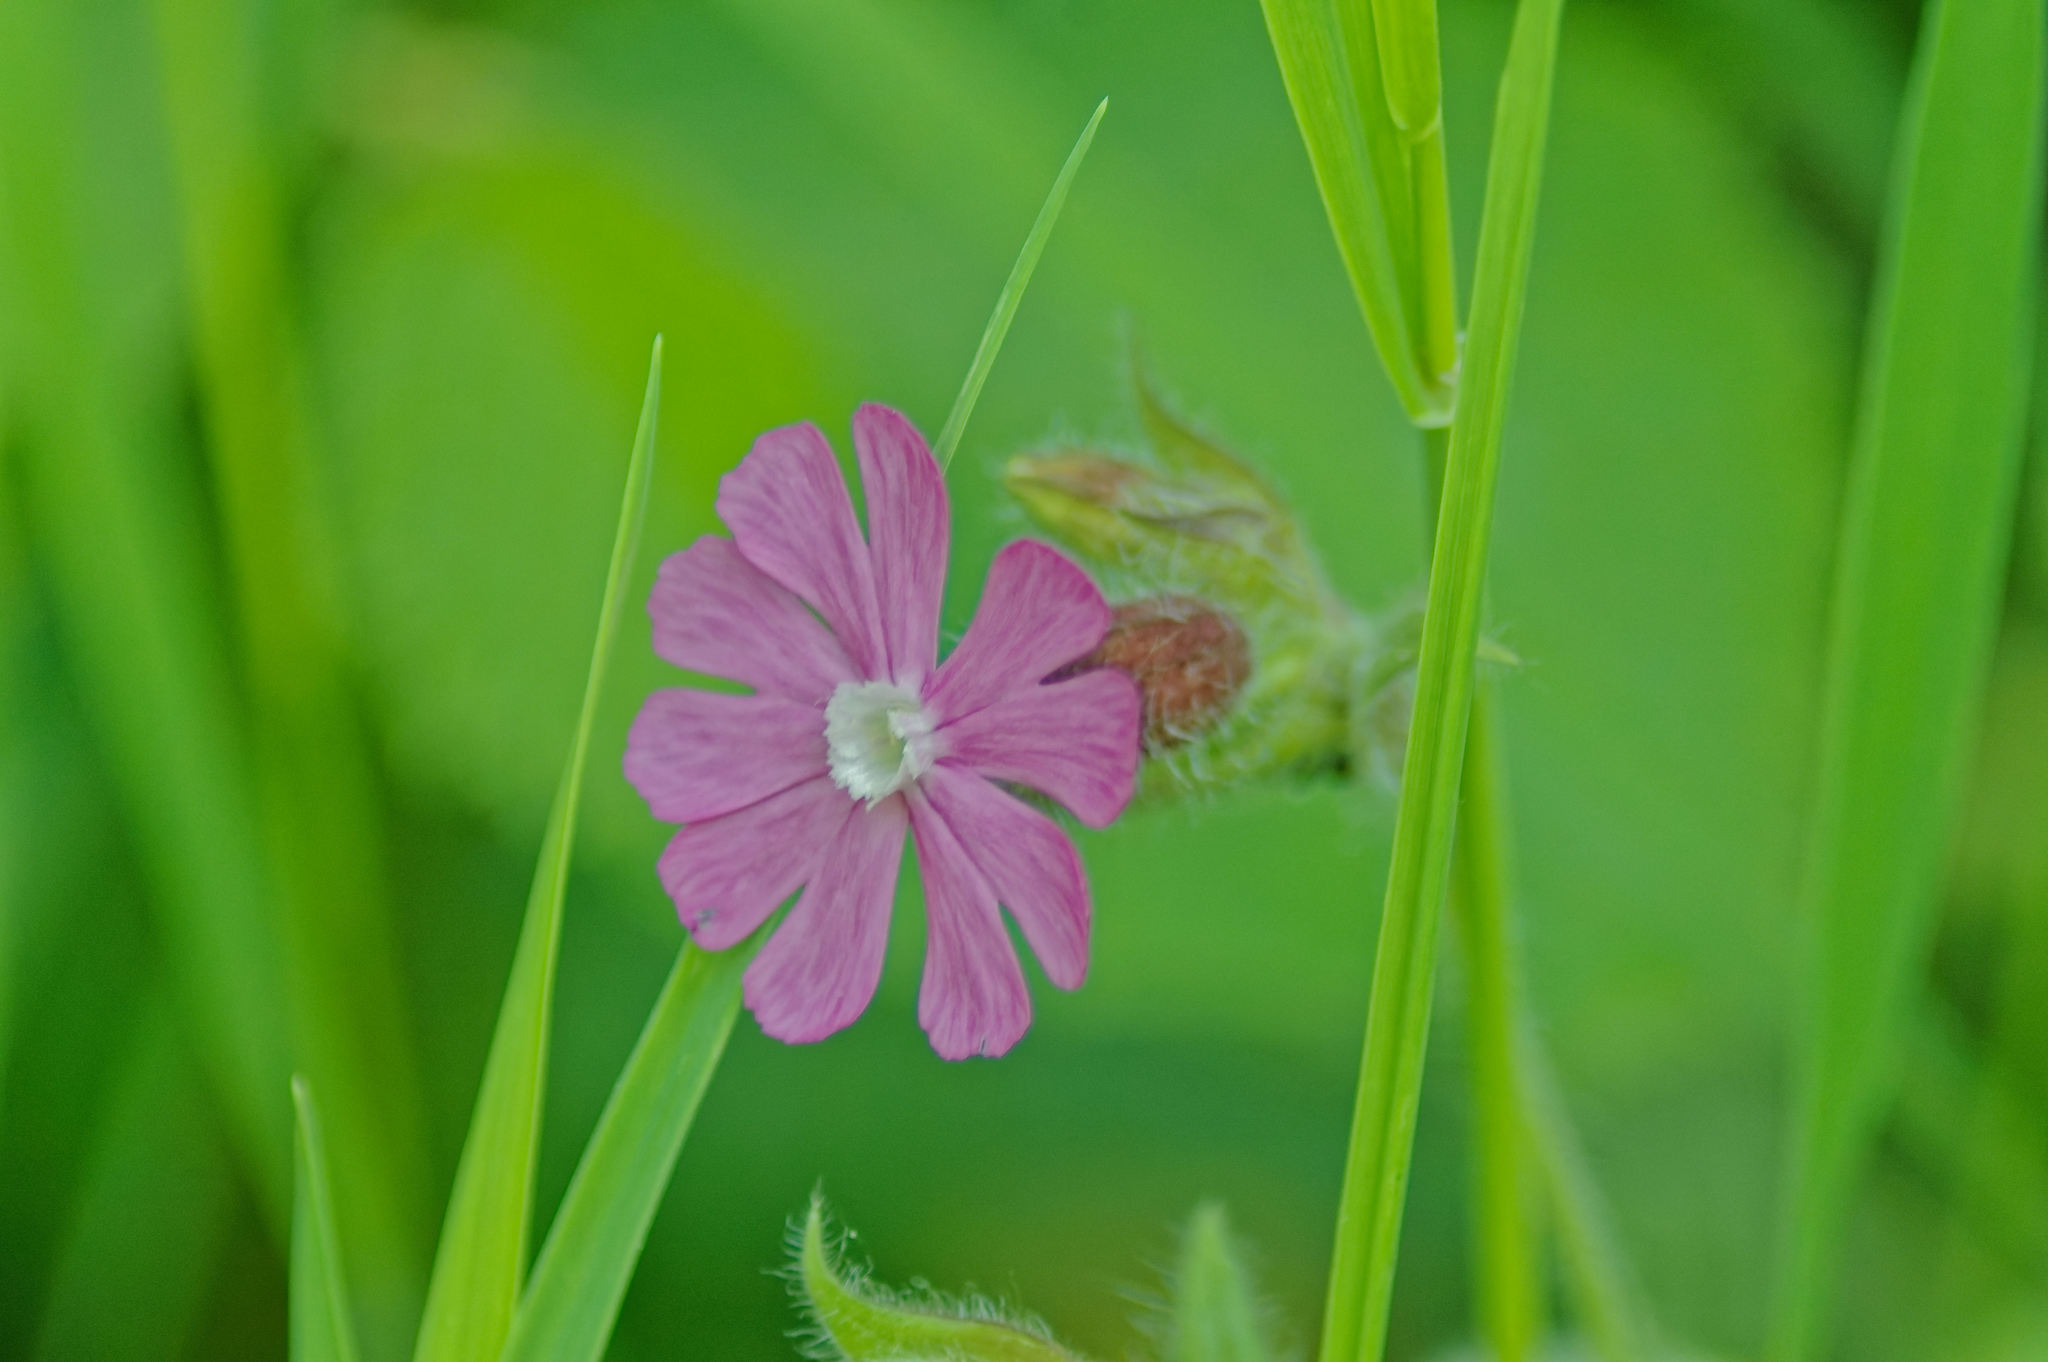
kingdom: Plantae
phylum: Tracheophyta
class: Magnoliopsida
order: Caryophyllales
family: Caryophyllaceae
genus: Silene
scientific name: Silene dioica
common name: Red campion
